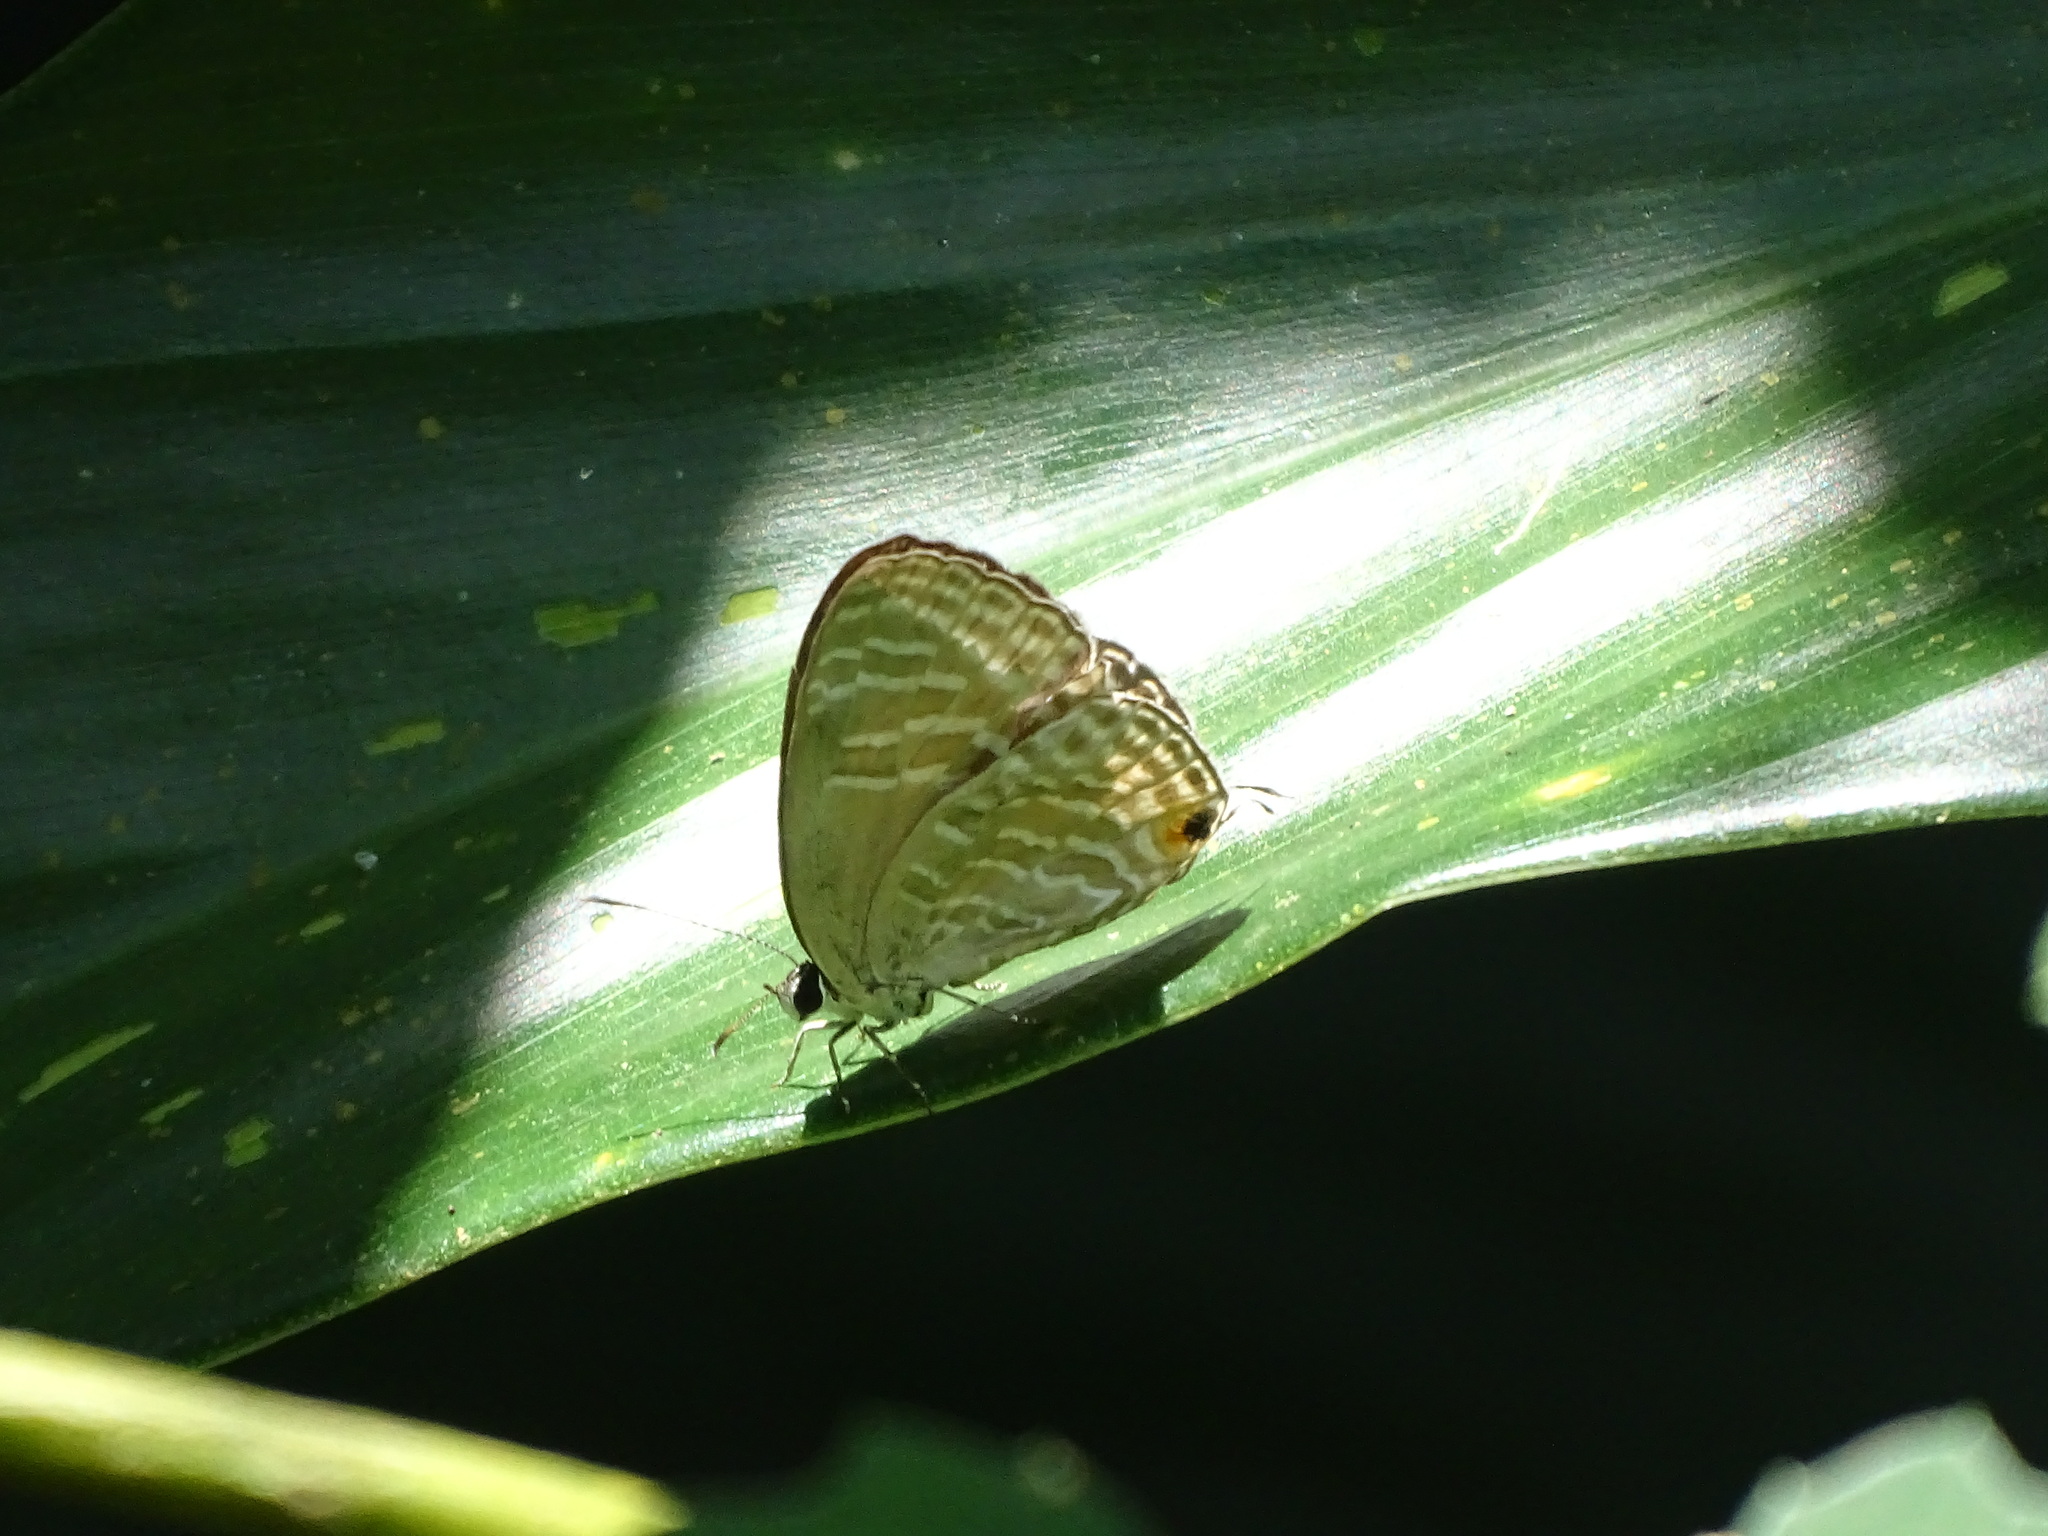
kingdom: Animalia
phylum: Arthropoda
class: Insecta
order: Lepidoptera
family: Lycaenidae
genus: Jamides
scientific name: Jamides alecto
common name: Metallic cerulean
